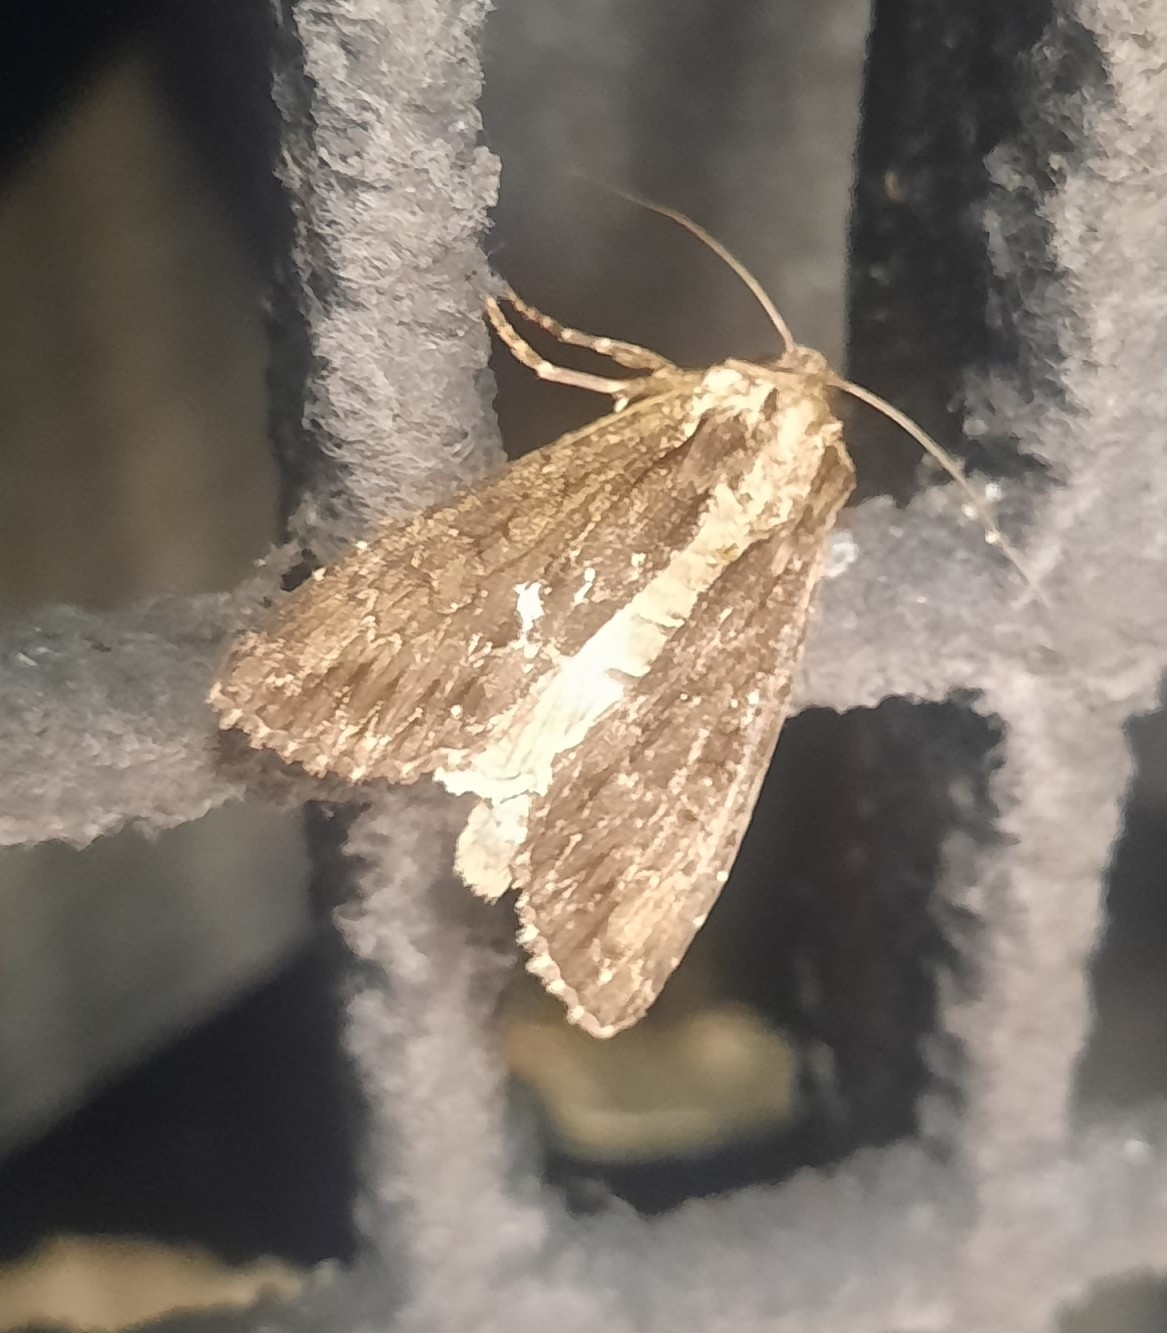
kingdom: Animalia
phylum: Arthropoda
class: Insecta
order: Lepidoptera
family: Noctuidae
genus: Apamea
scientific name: Apamea monoglypha
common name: Dark arches
